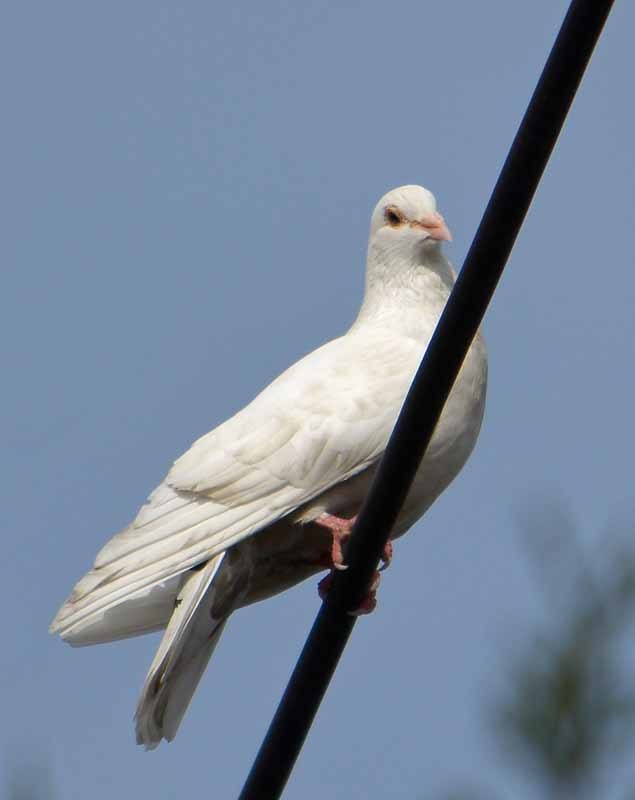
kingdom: Animalia
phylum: Chordata
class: Aves
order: Columbiformes
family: Columbidae
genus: Columba
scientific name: Columba livia
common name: Rock pigeon
